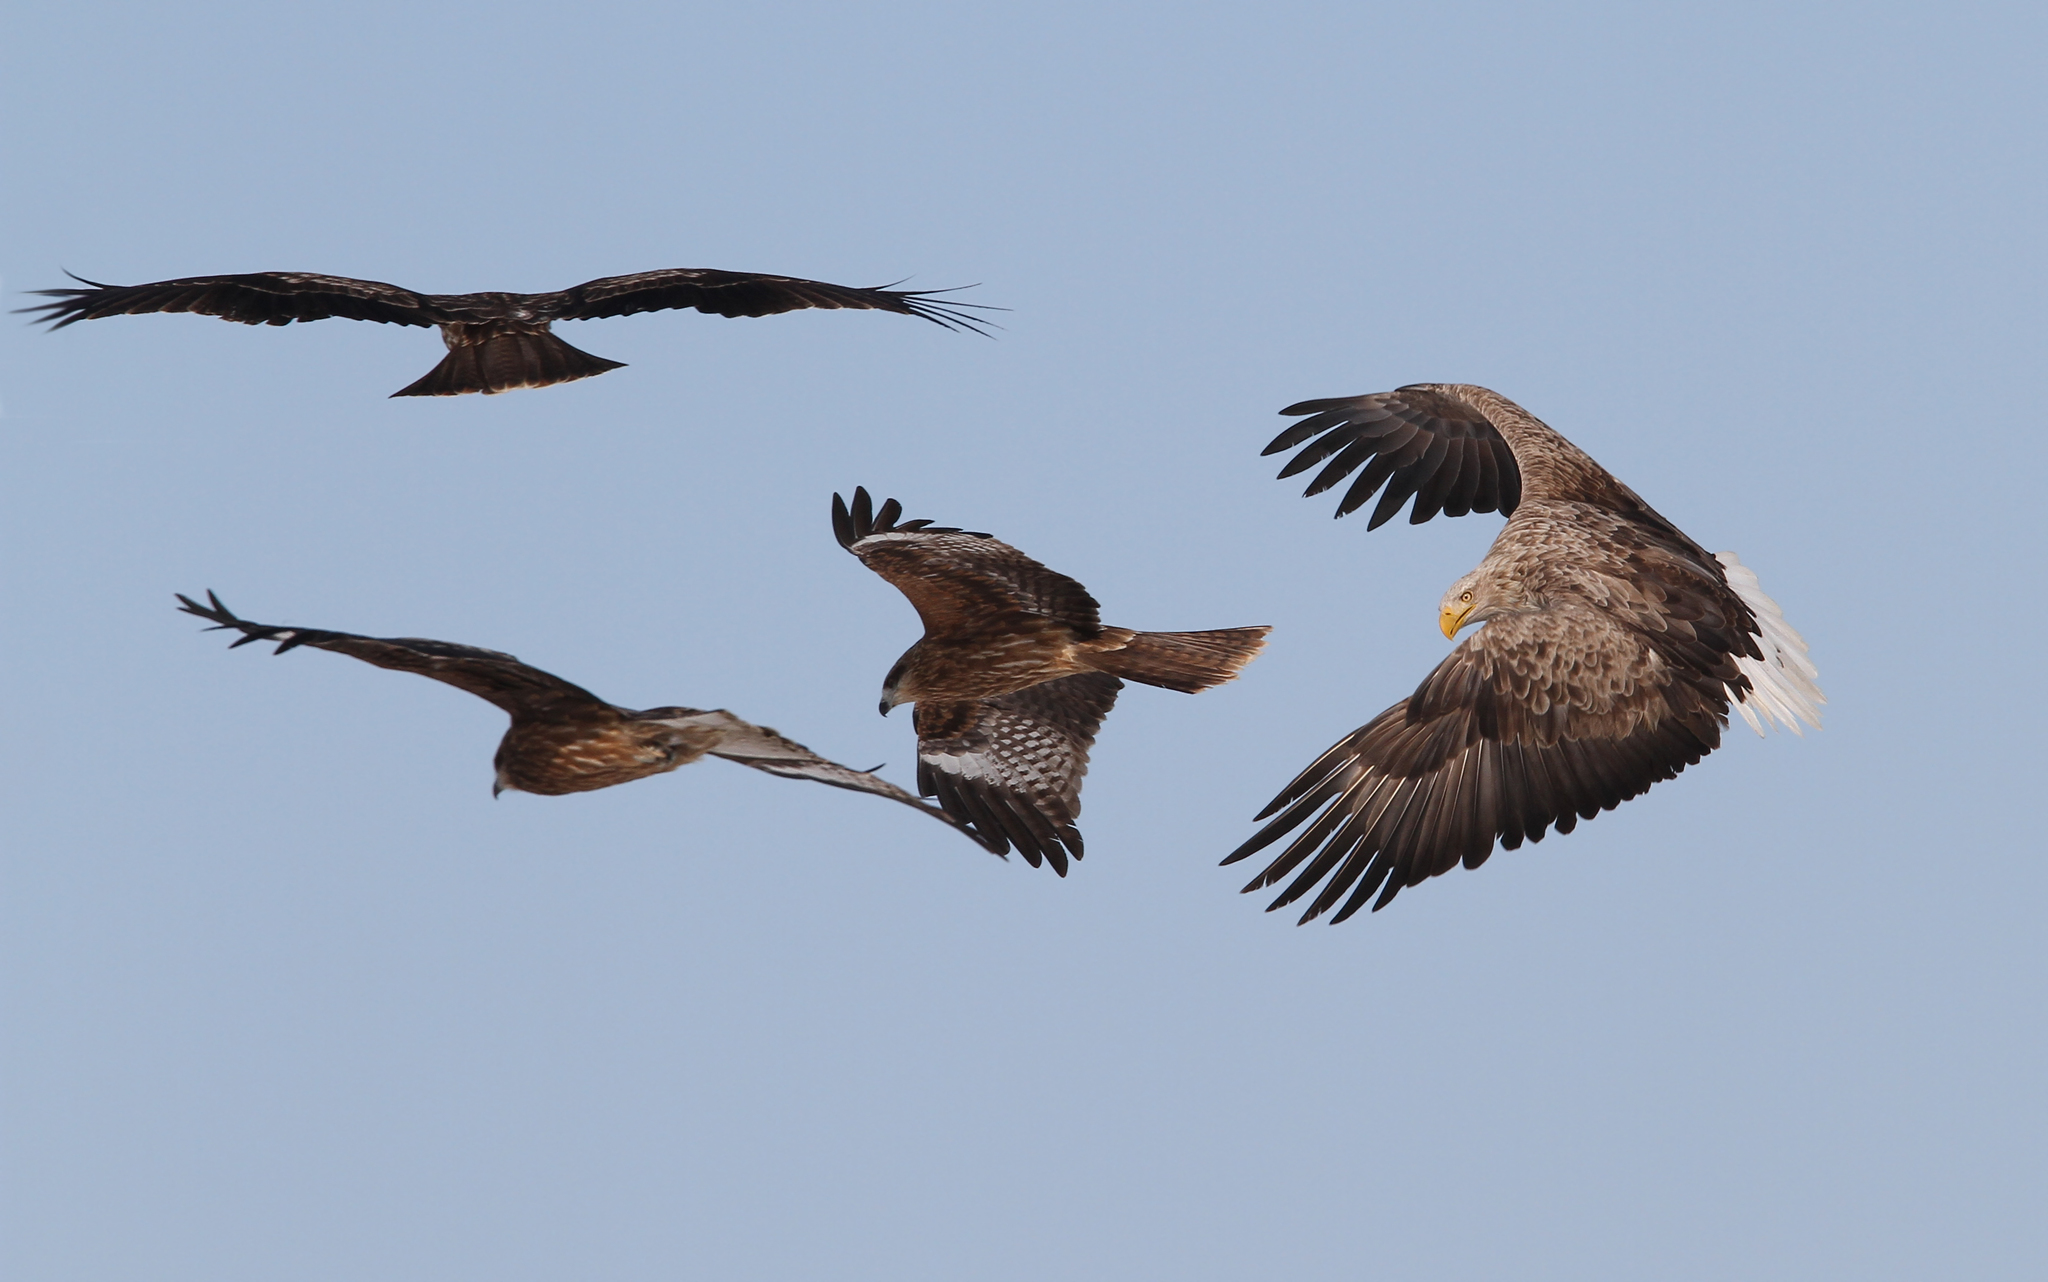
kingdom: Animalia
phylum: Chordata
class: Aves
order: Accipitriformes
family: Accipitridae
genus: Haliaeetus
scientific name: Haliaeetus albicilla
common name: White-tailed eagle
